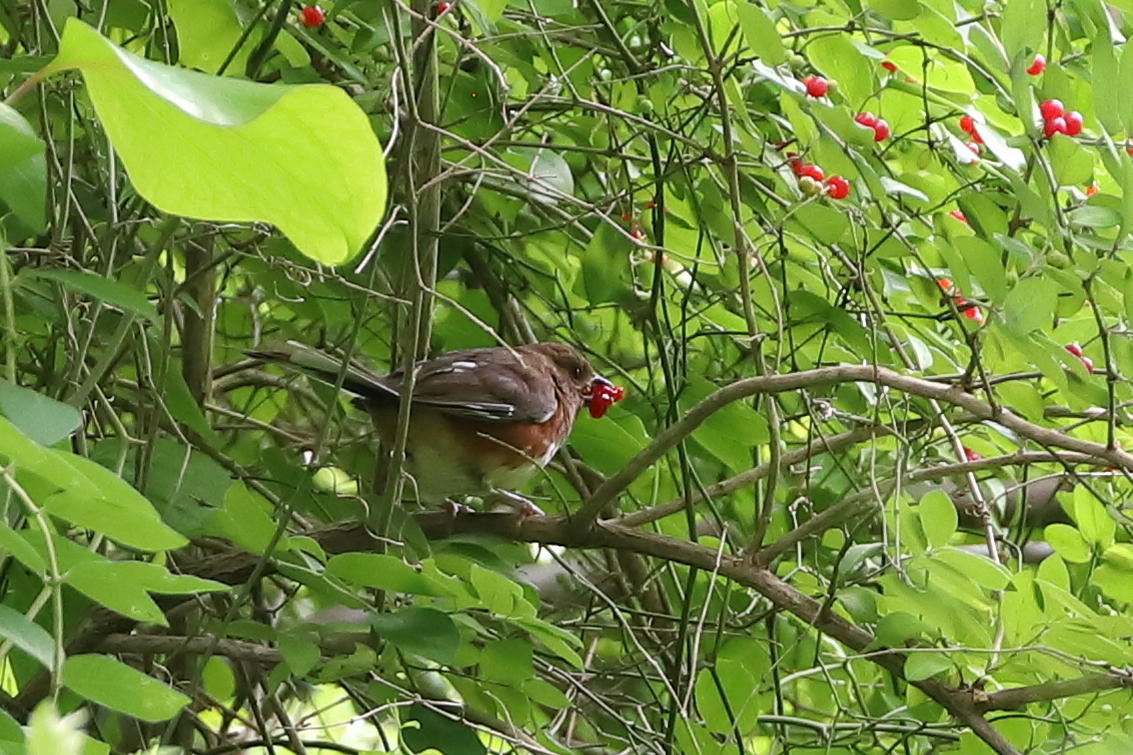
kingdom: Animalia
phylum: Chordata
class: Aves
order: Passeriformes
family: Passerellidae
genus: Pipilo
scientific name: Pipilo erythrophthalmus
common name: Eastern towhee
